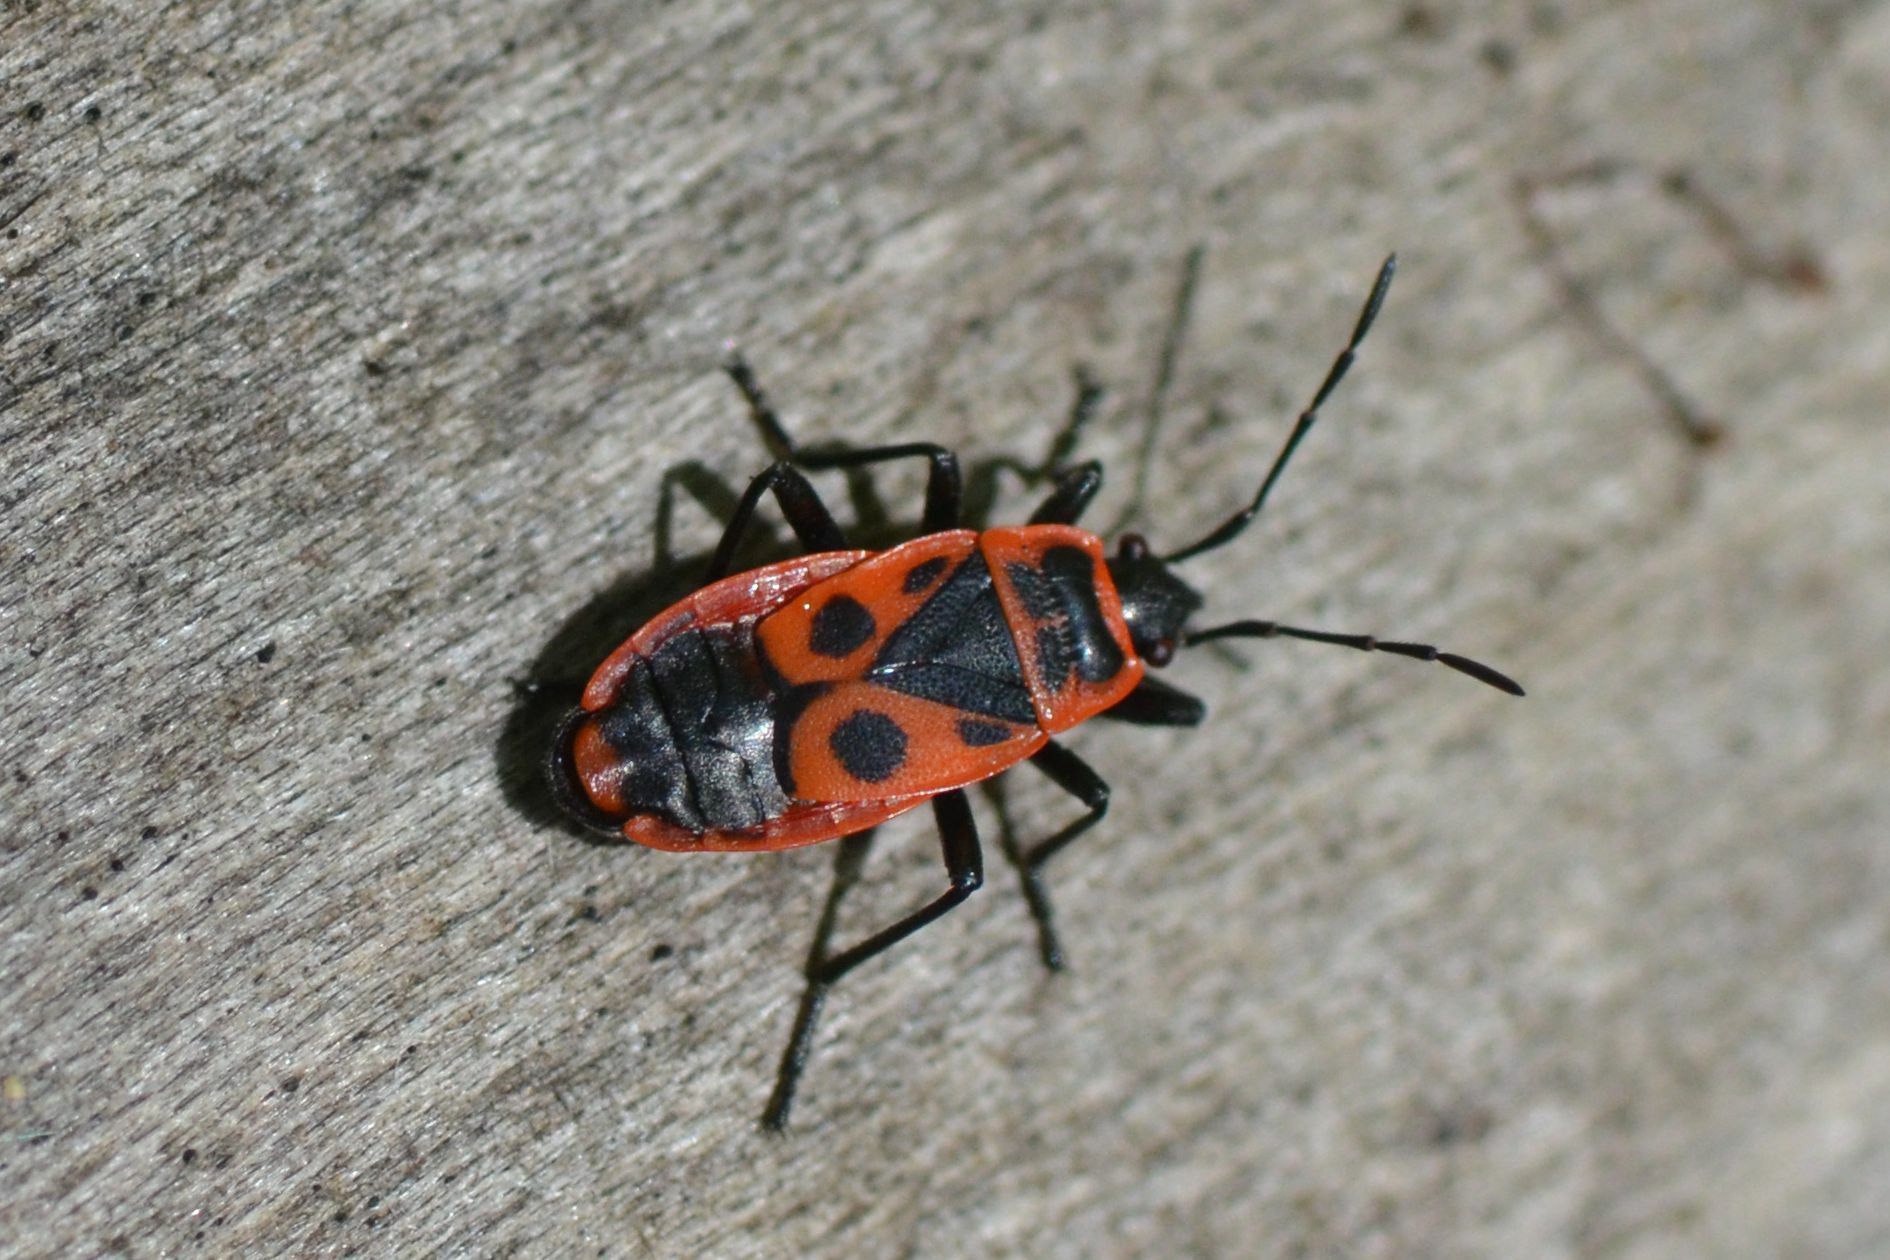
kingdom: Animalia
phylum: Arthropoda
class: Insecta
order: Hemiptera
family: Pyrrhocoridae
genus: Pyrrhocoris
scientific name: Pyrrhocoris apterus
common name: Firebug
